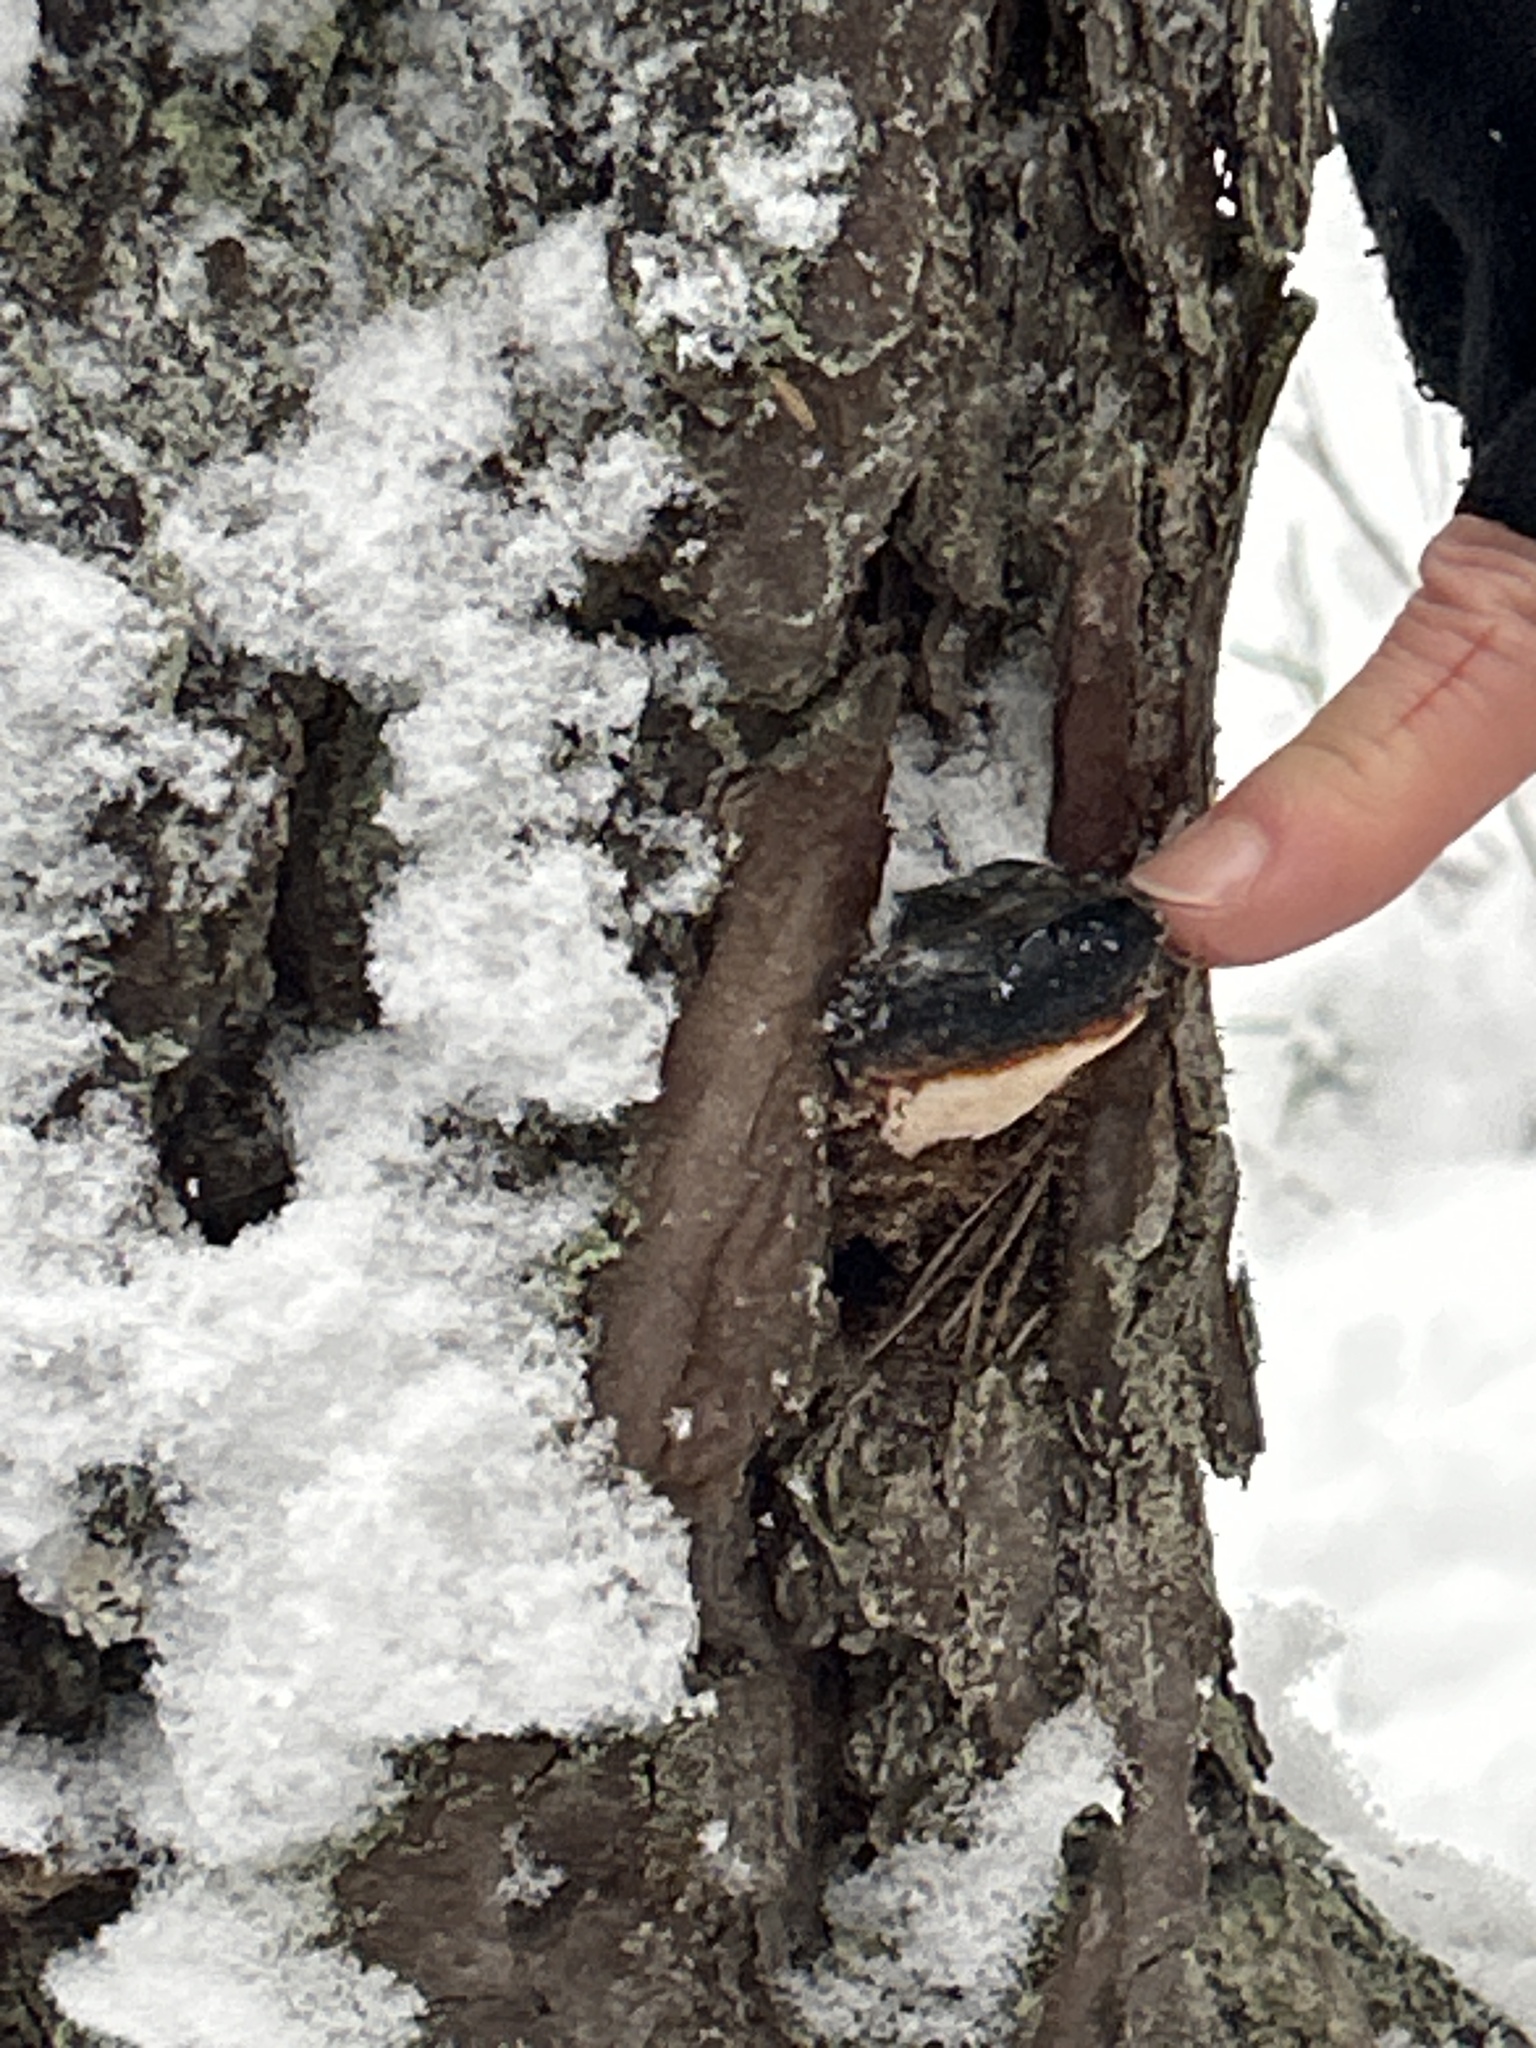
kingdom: Fungi
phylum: Basidiomycota
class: Agaricomycetes
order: Polyporales
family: Fomitopsidaceae
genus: Fomitopsis
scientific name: Fomitopsis pinicola
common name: Red-belted bracket
